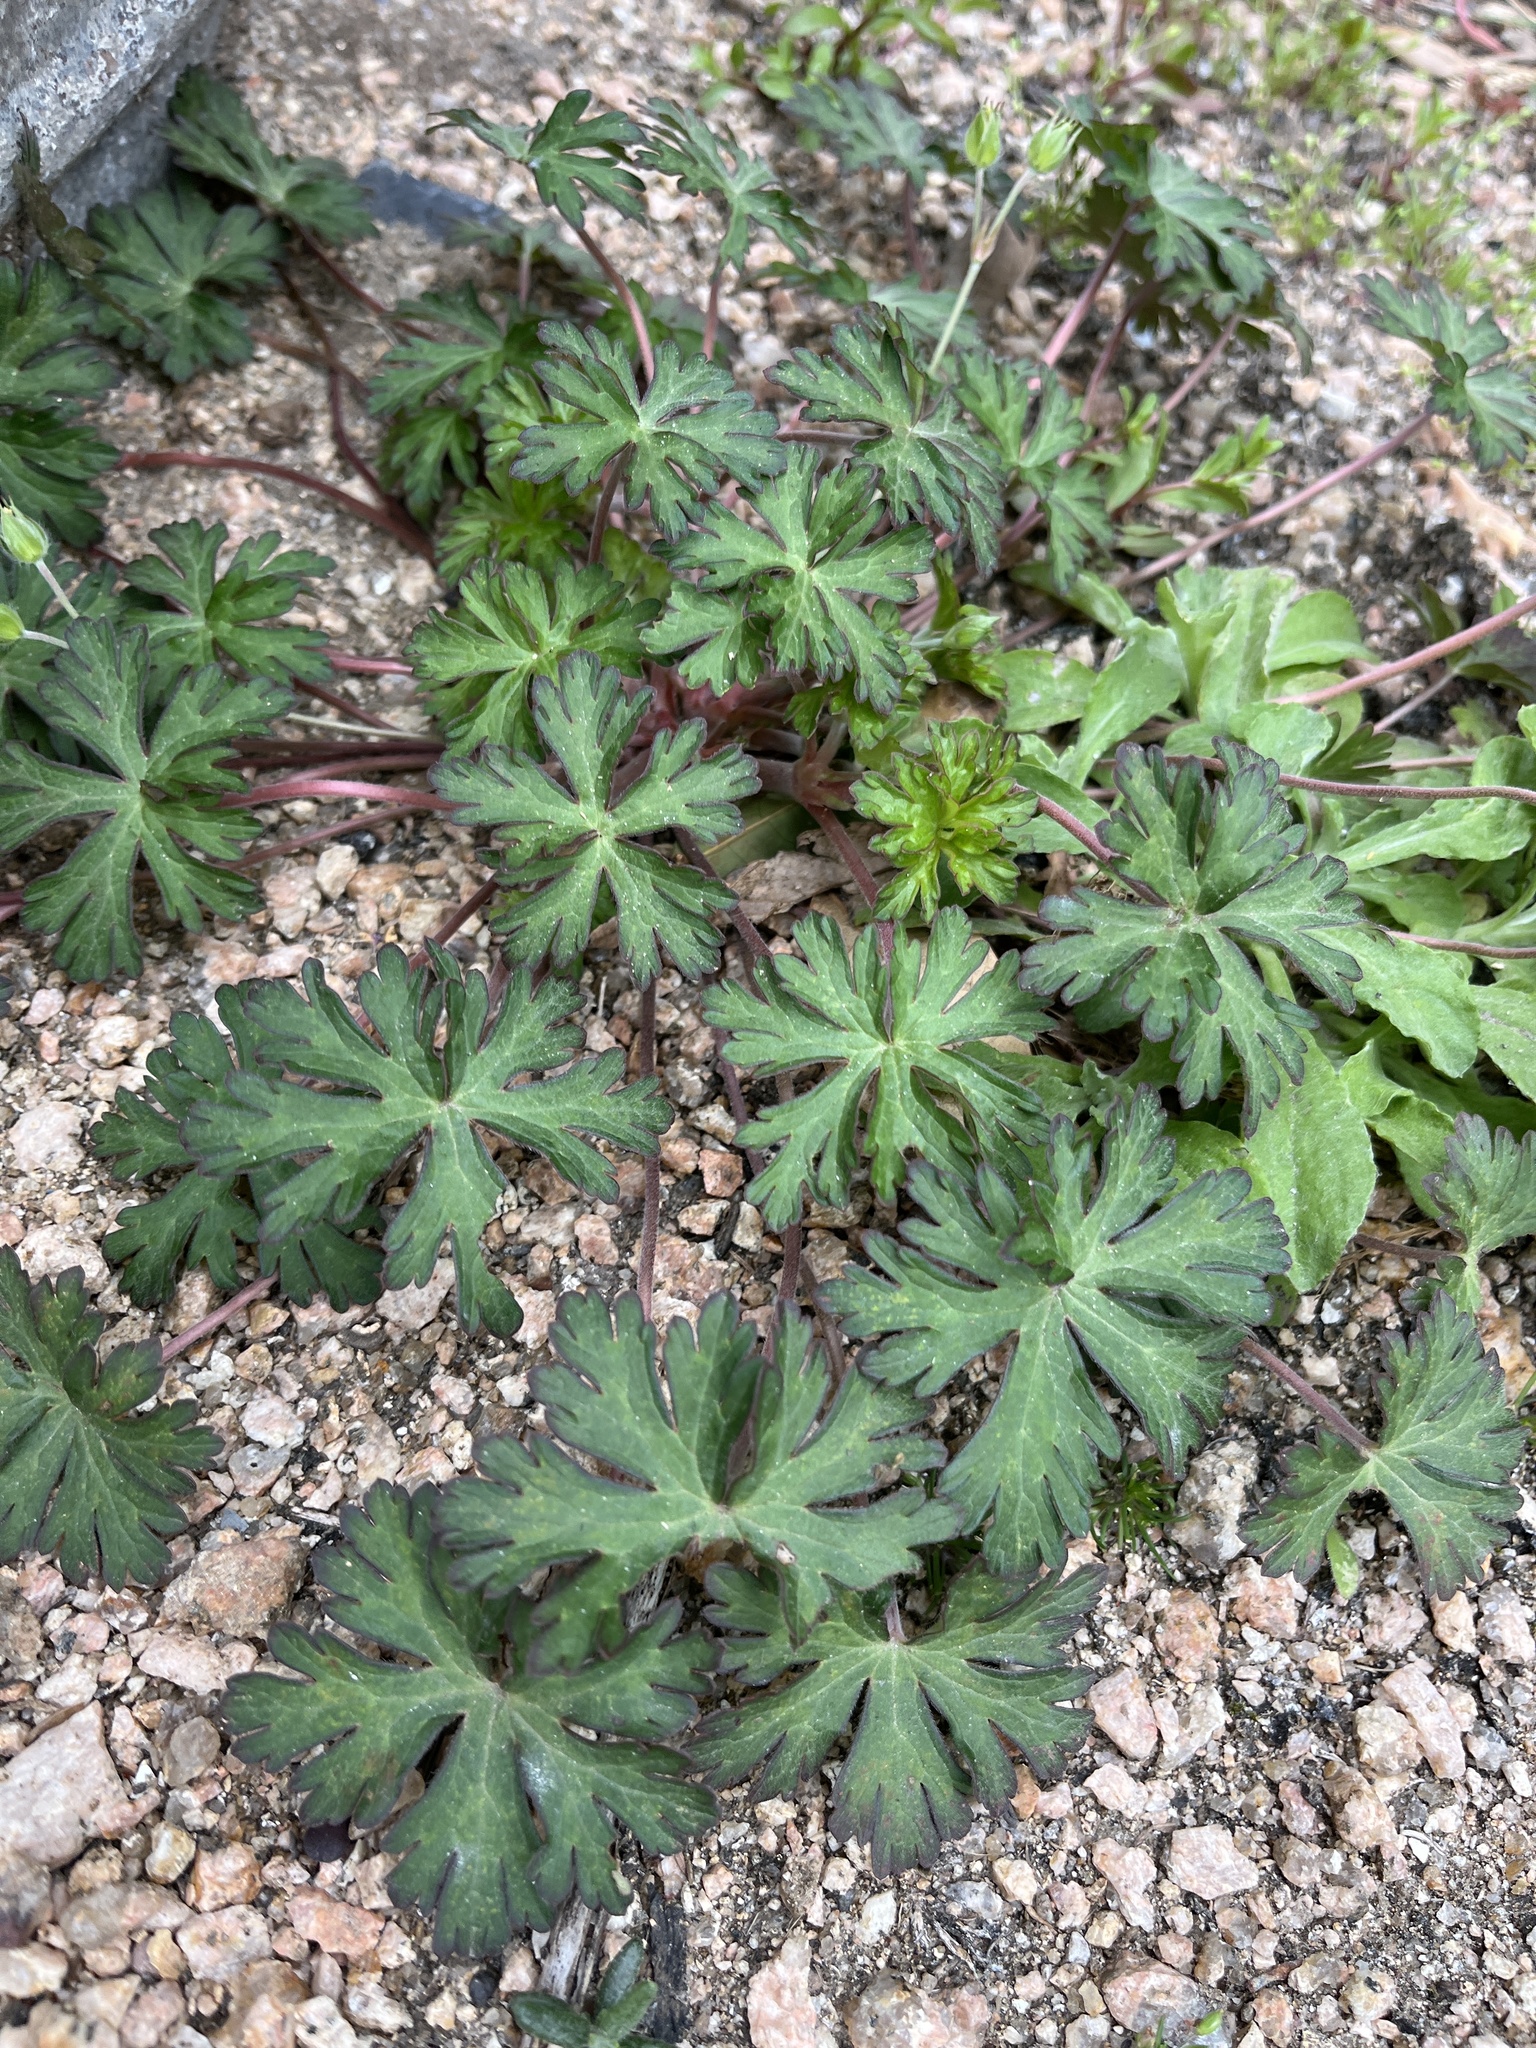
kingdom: Plantae
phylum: Tracheophyta
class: Magnoliopsida
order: Geraniales
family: Geraniaceae
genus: Geranium
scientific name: Geranium carolinianum
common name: Carolina crane's-bill
